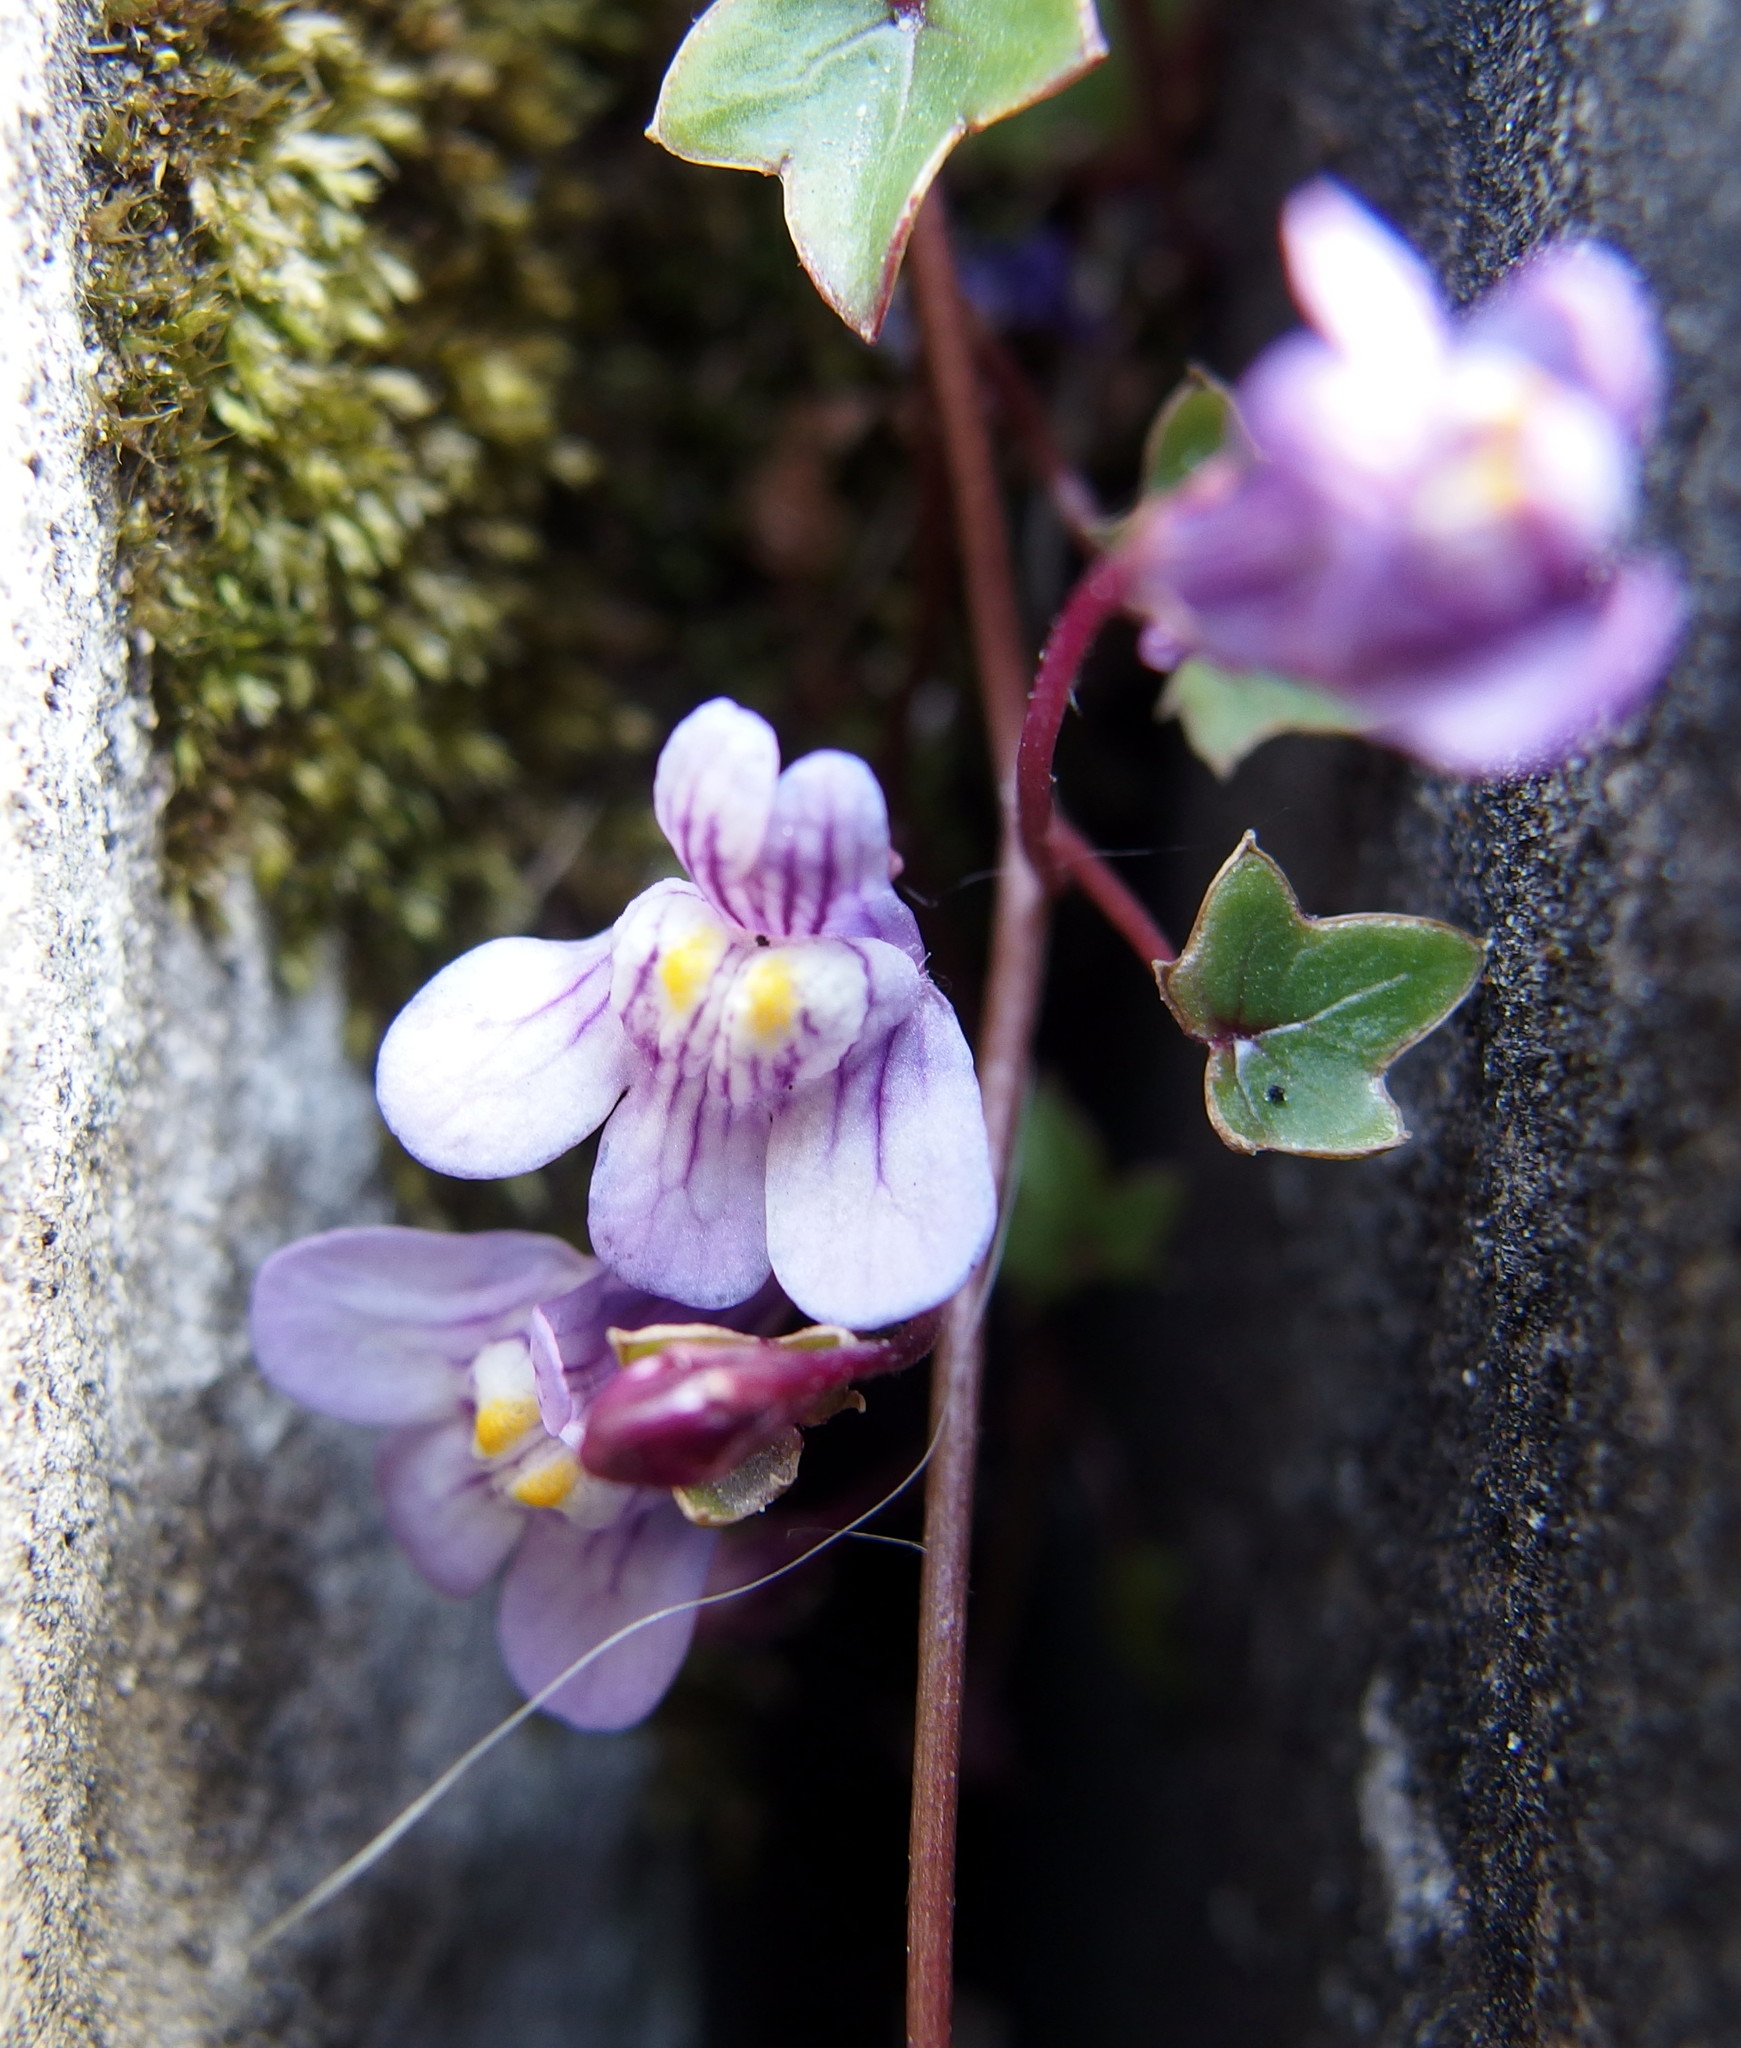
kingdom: Plantae
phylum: Tracheophyta
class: Magnoliopsida
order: Lamiales
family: Plantaginaceae
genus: Cymbalaria
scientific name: Cymbalaria muralis
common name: Ivy-leaved toadflax
